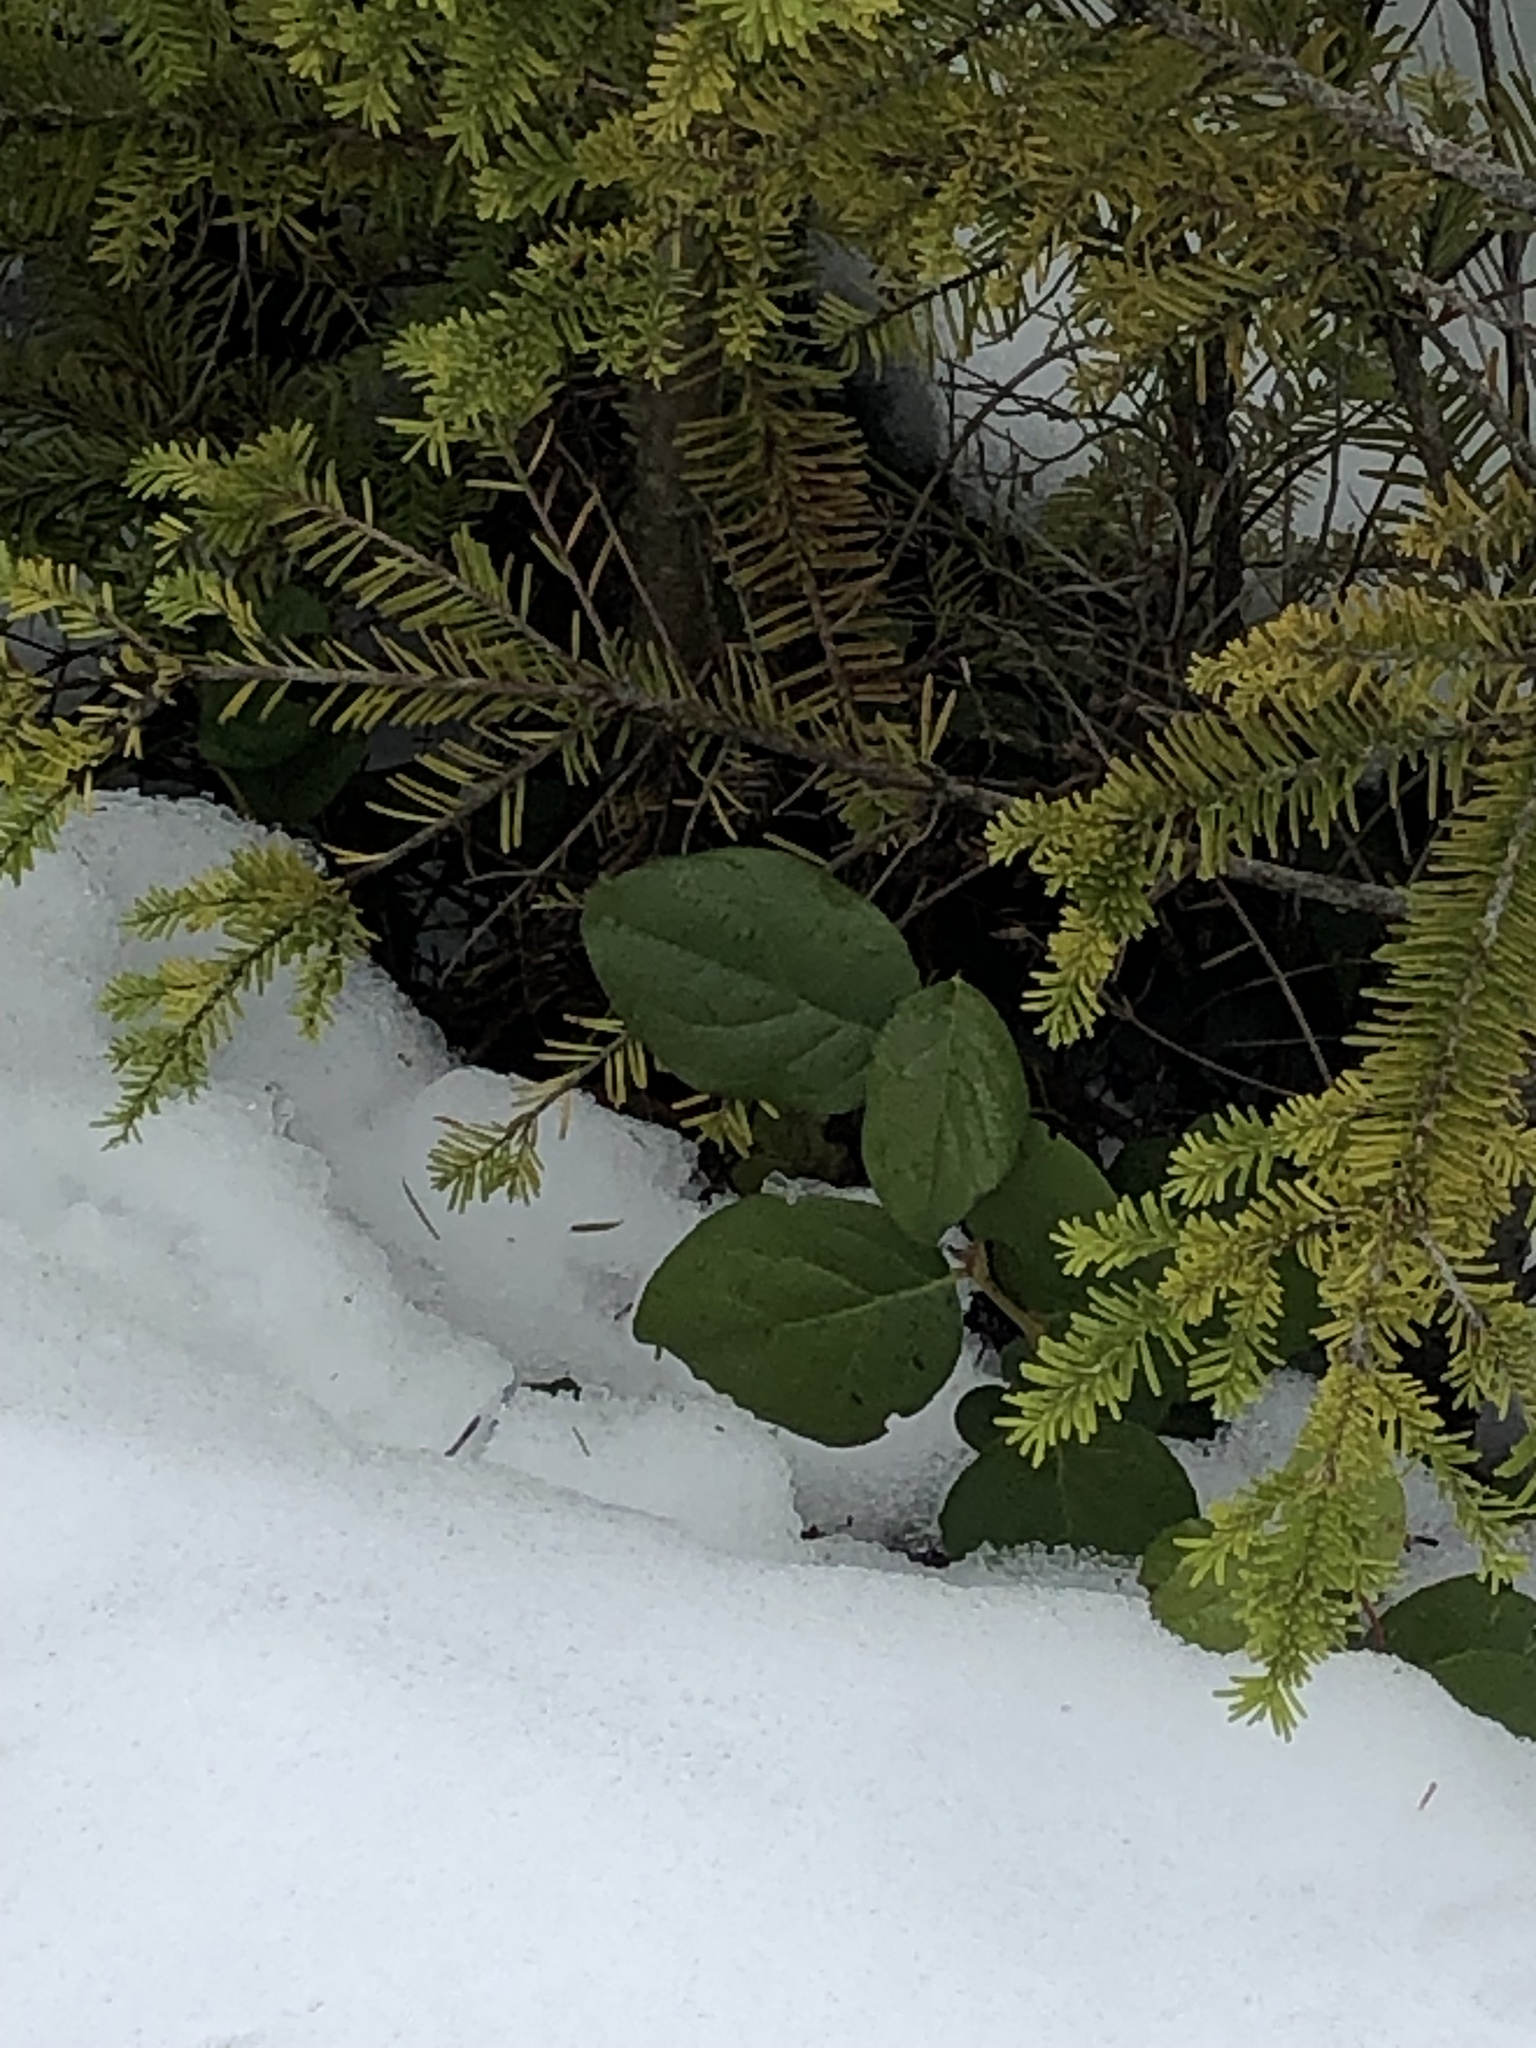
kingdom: Plantae
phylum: Tracheophyta
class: Magnoliopsida
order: Ericales
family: Ericaceae
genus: Gaultheria
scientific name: Gaultheria shallon
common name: Shallon
